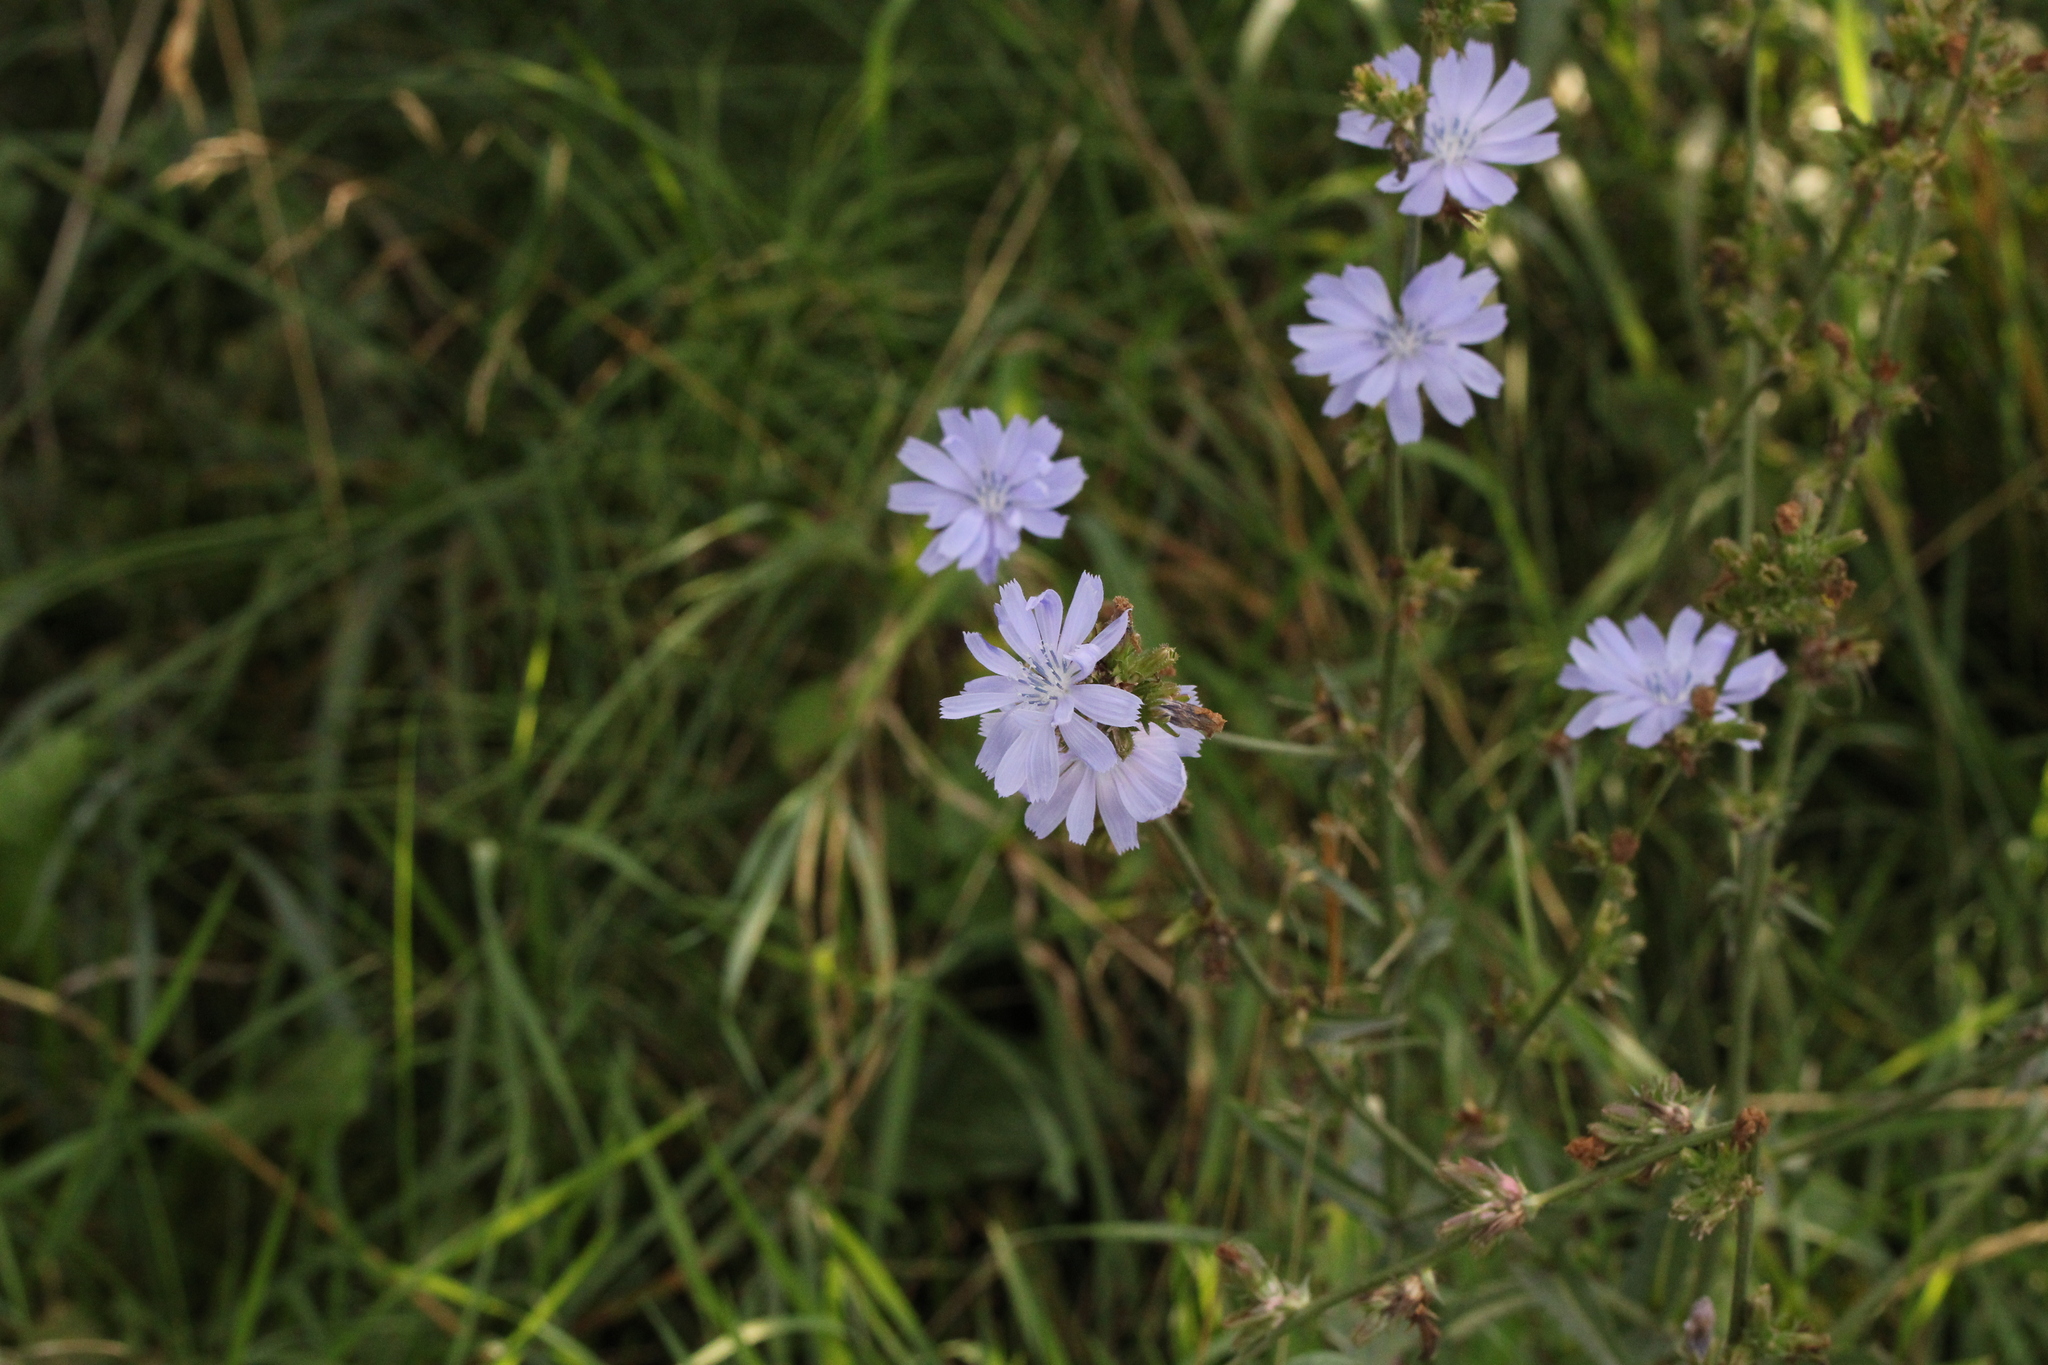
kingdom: Plantae
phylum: Tracheophyta
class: Magnoliopsida
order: Asterales
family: Asteraceae
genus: Cichorium
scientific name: Cichorium intybus
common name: Chicory
